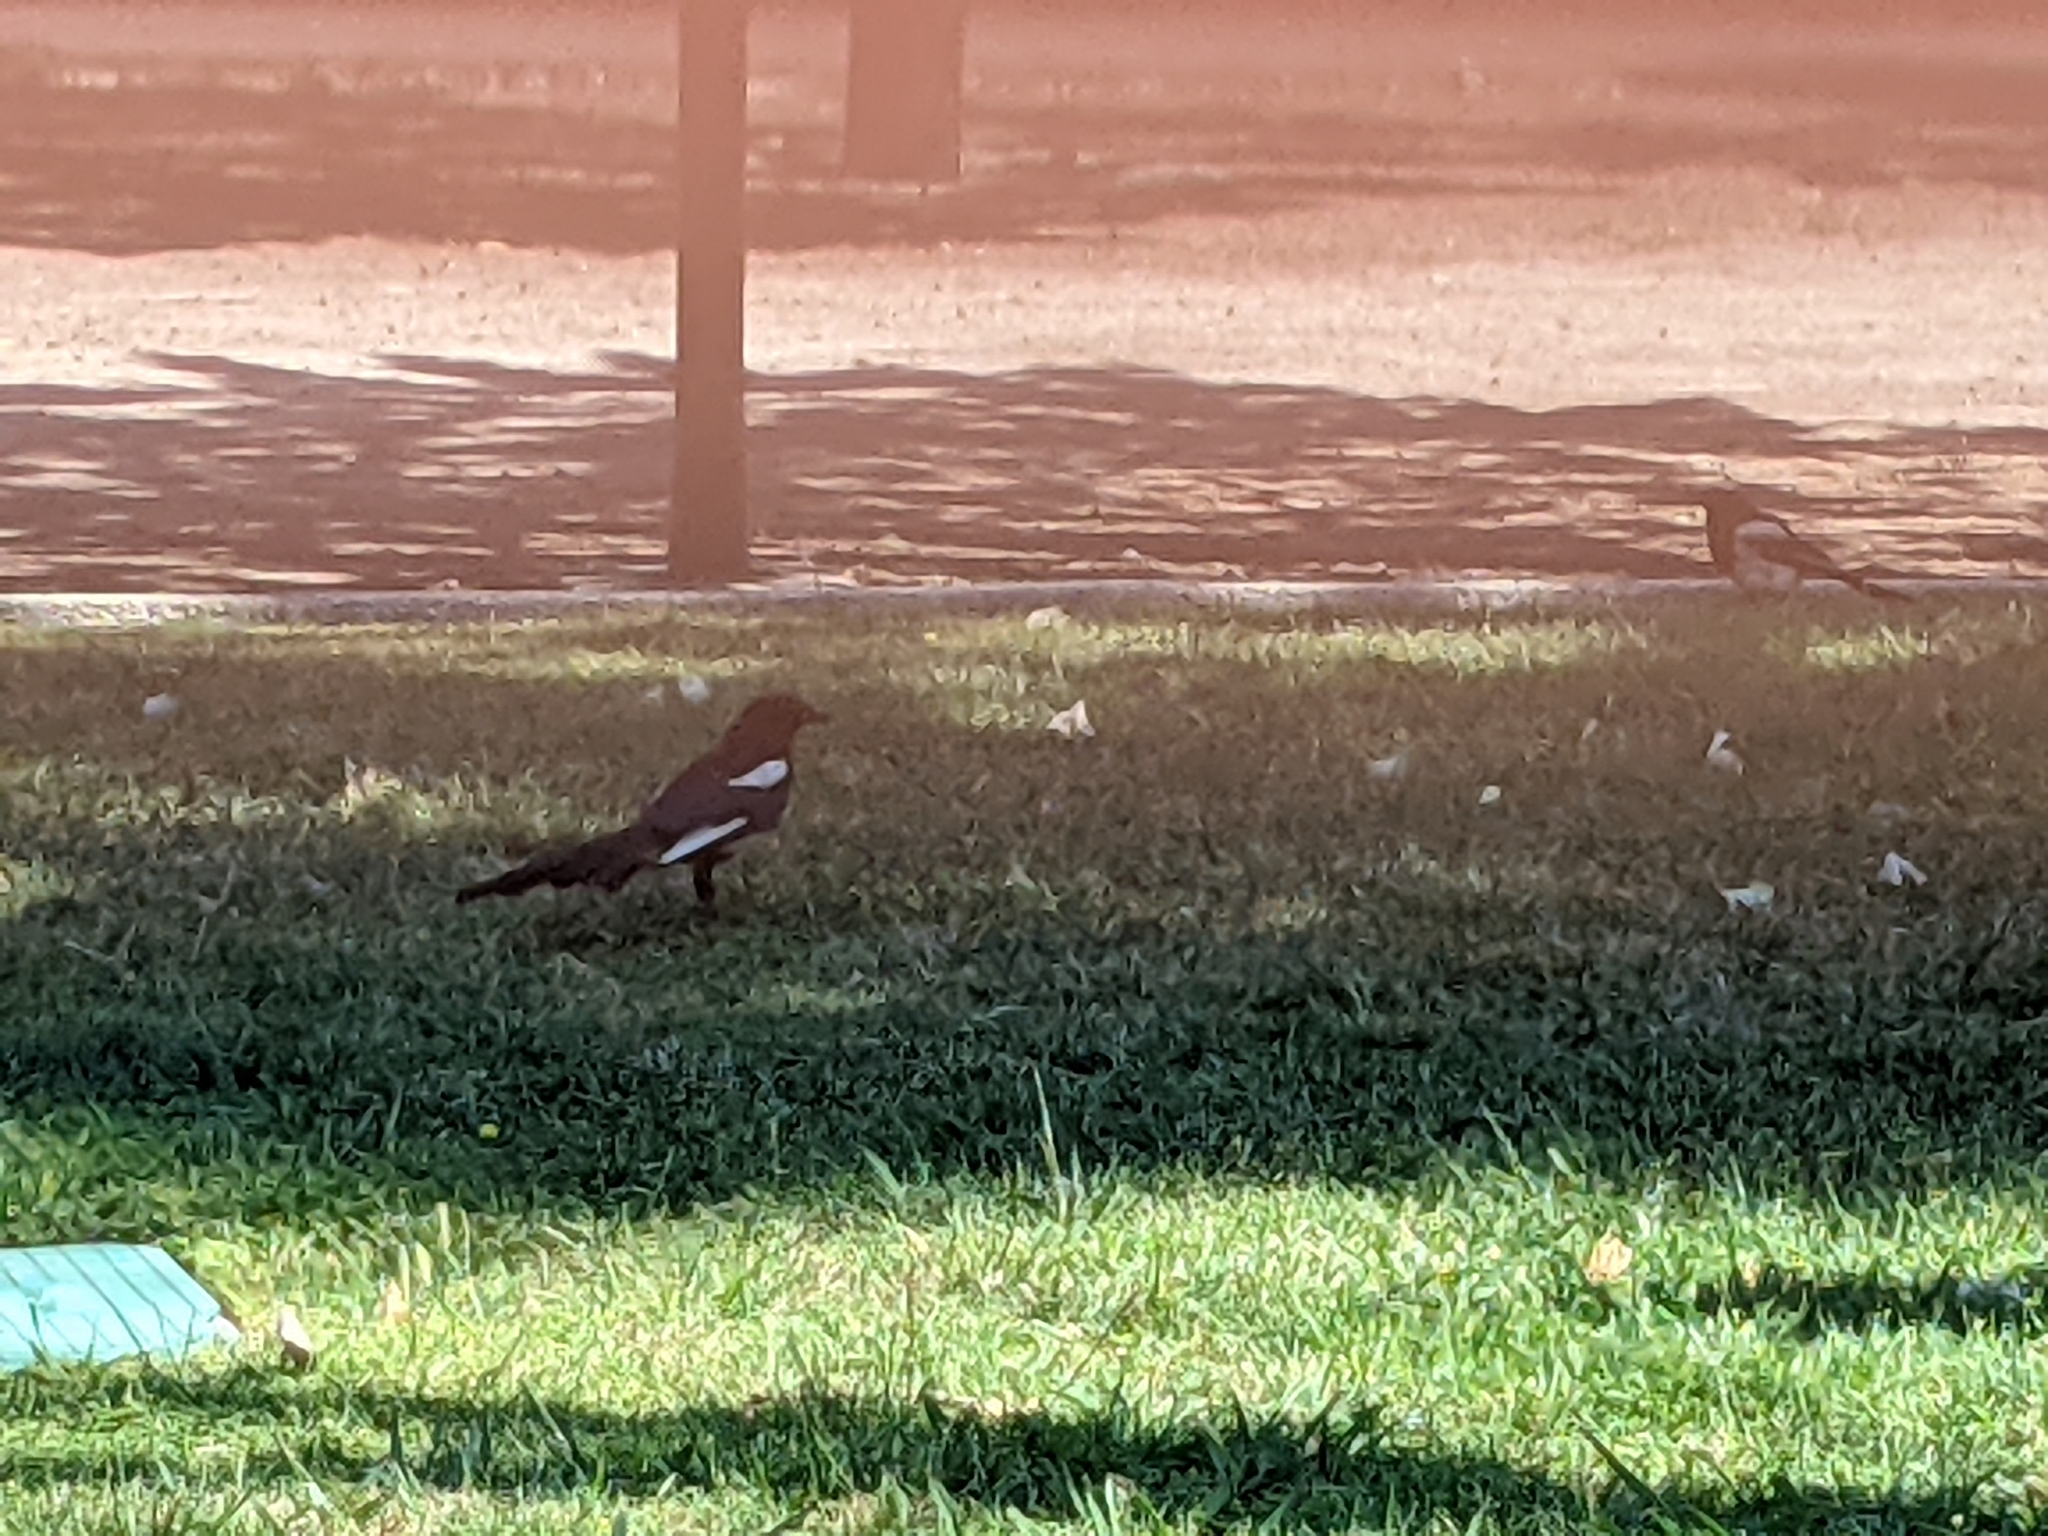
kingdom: Animalia
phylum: Chordata
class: Aves
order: Passeriformes
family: Corvidae
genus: Pica
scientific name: Pica pica
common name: Eurasian magpie
